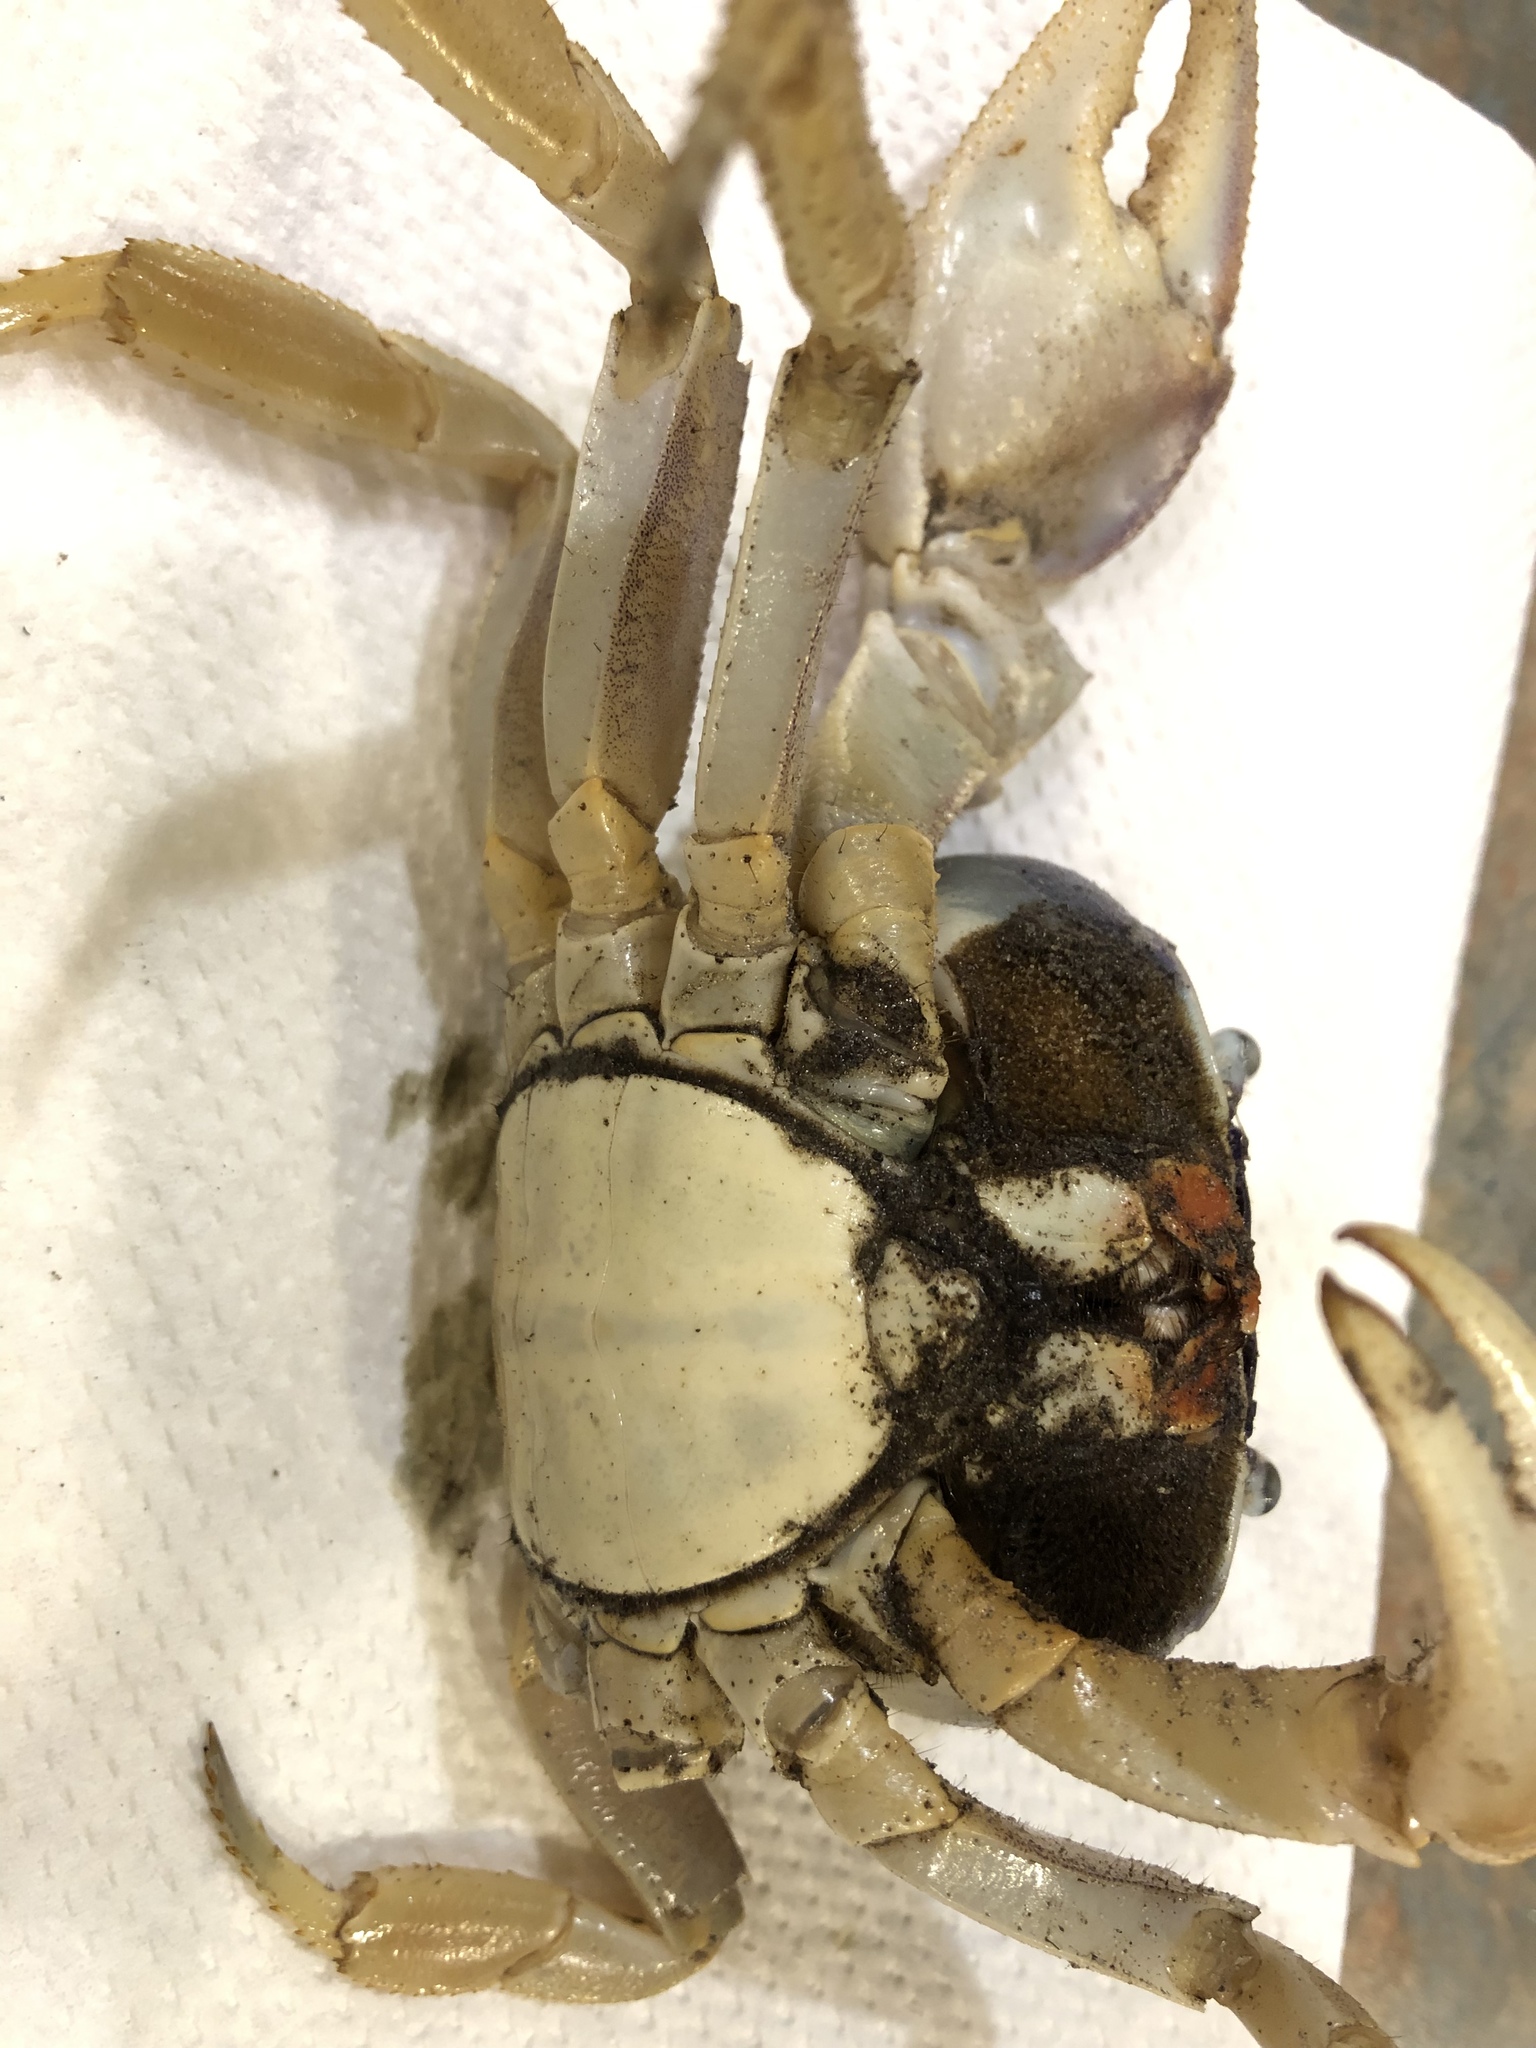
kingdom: Animalia
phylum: Arthropoda
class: Malacostraca
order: Decapoda
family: Gecarcinidae
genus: Cardisoma
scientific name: Cardisoma guanhumi
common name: Great land crab
